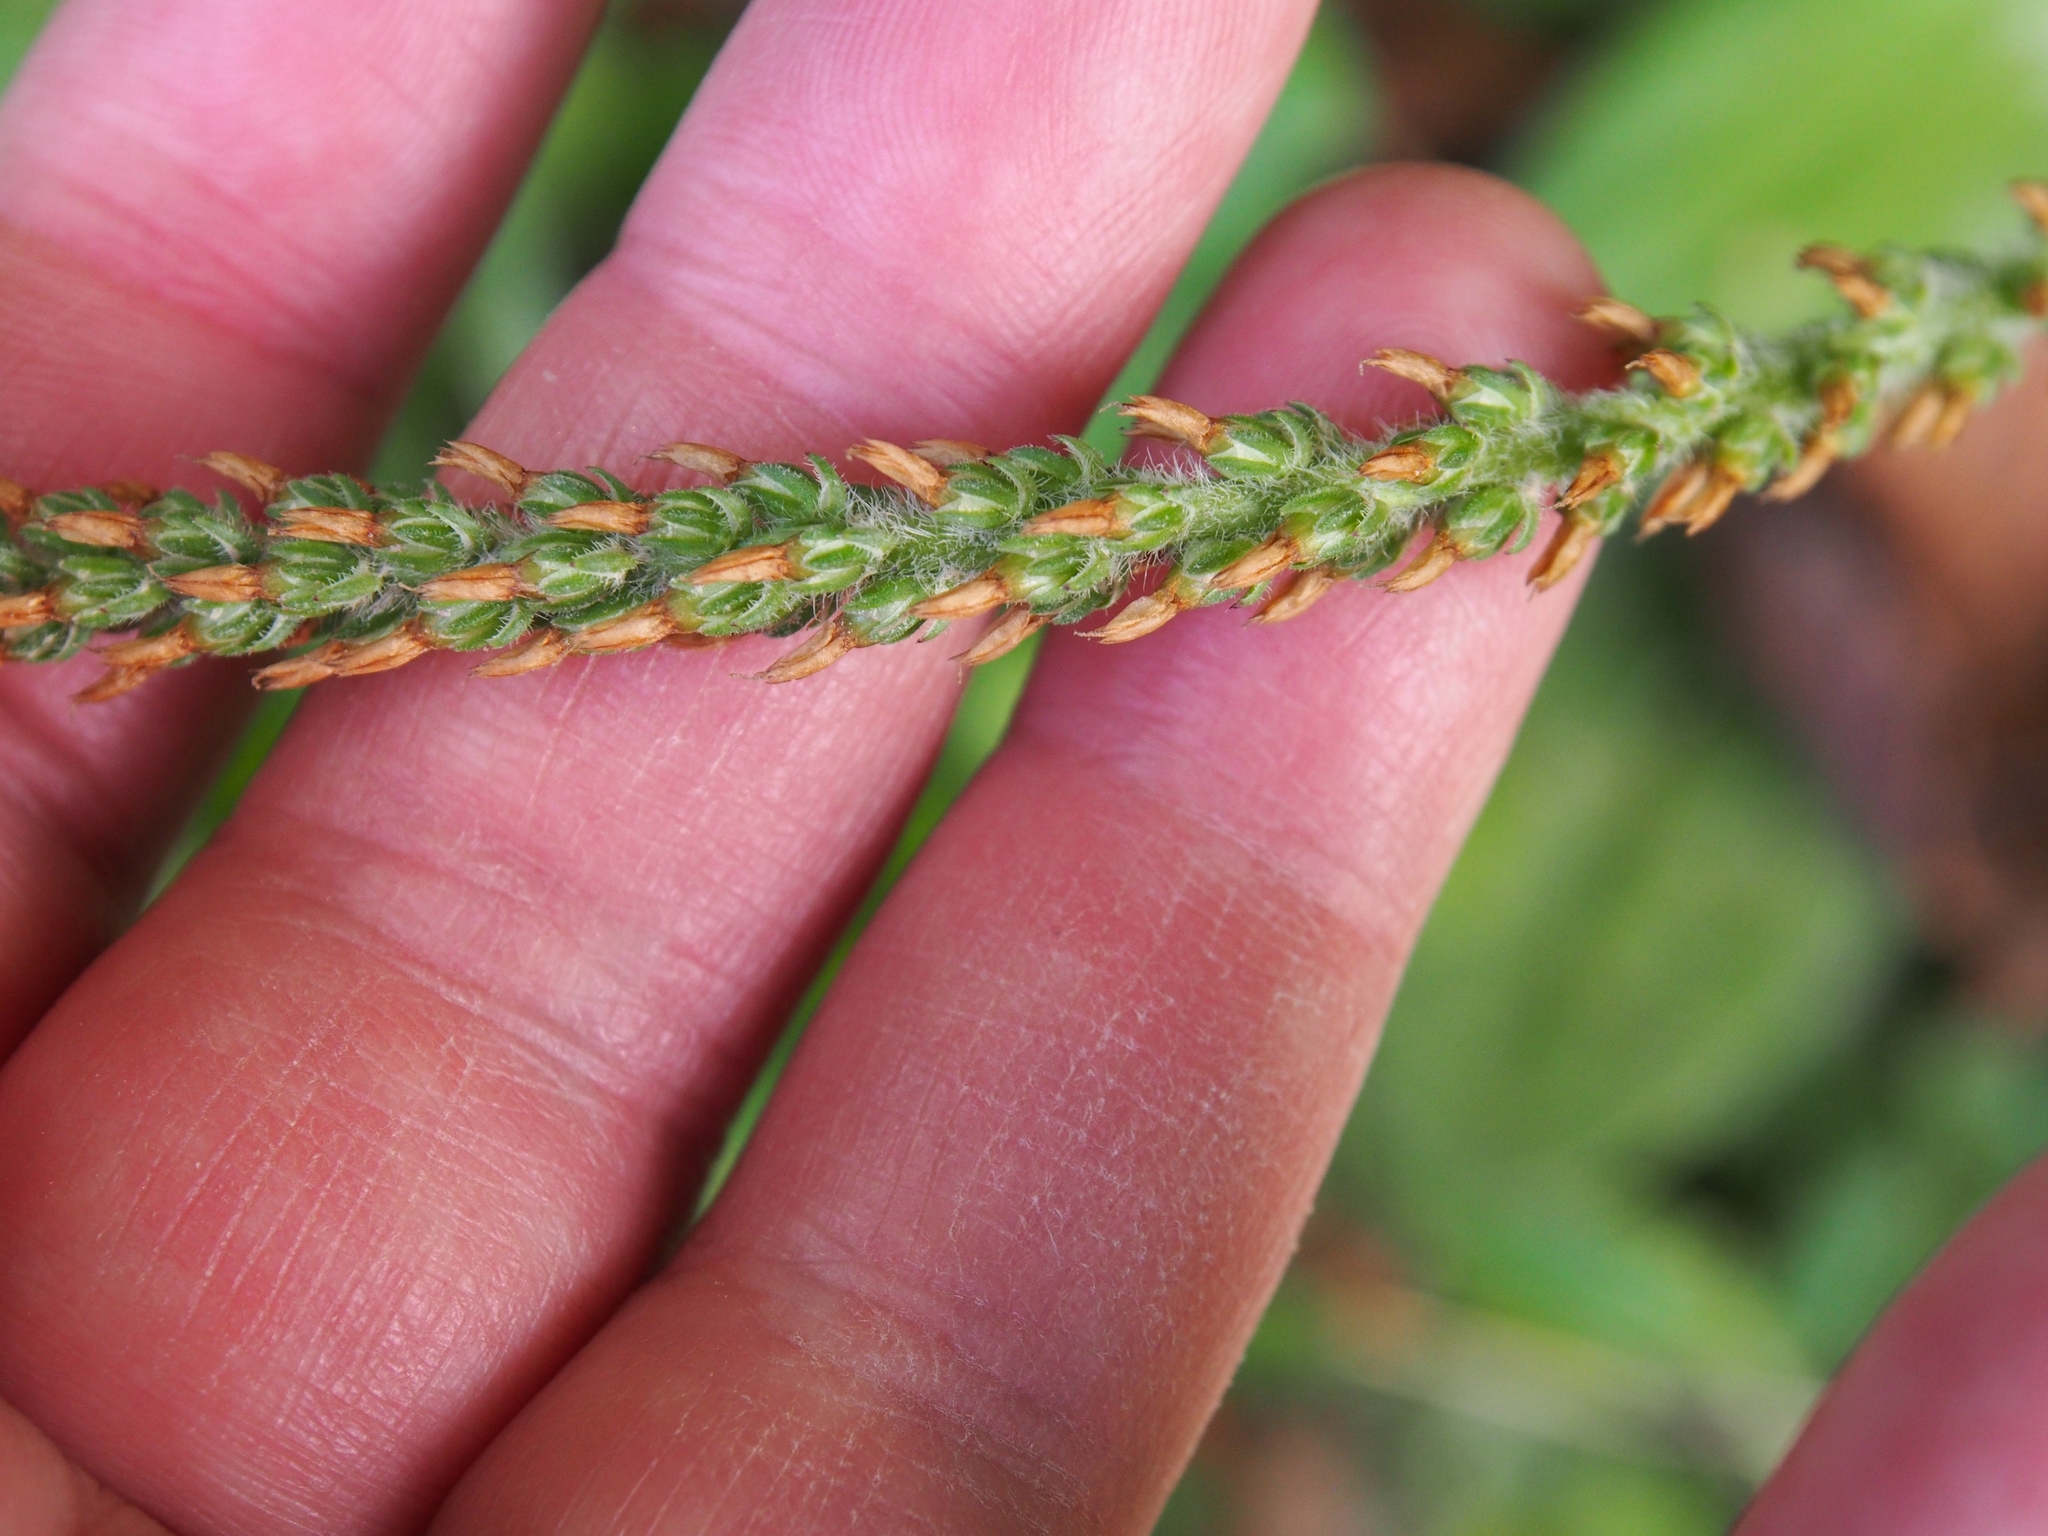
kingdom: Plantae
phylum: Tracheophyta
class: Magnoliopsida
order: Lamiales
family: Plantaginaceae
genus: Plantago
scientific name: Plantago australis
